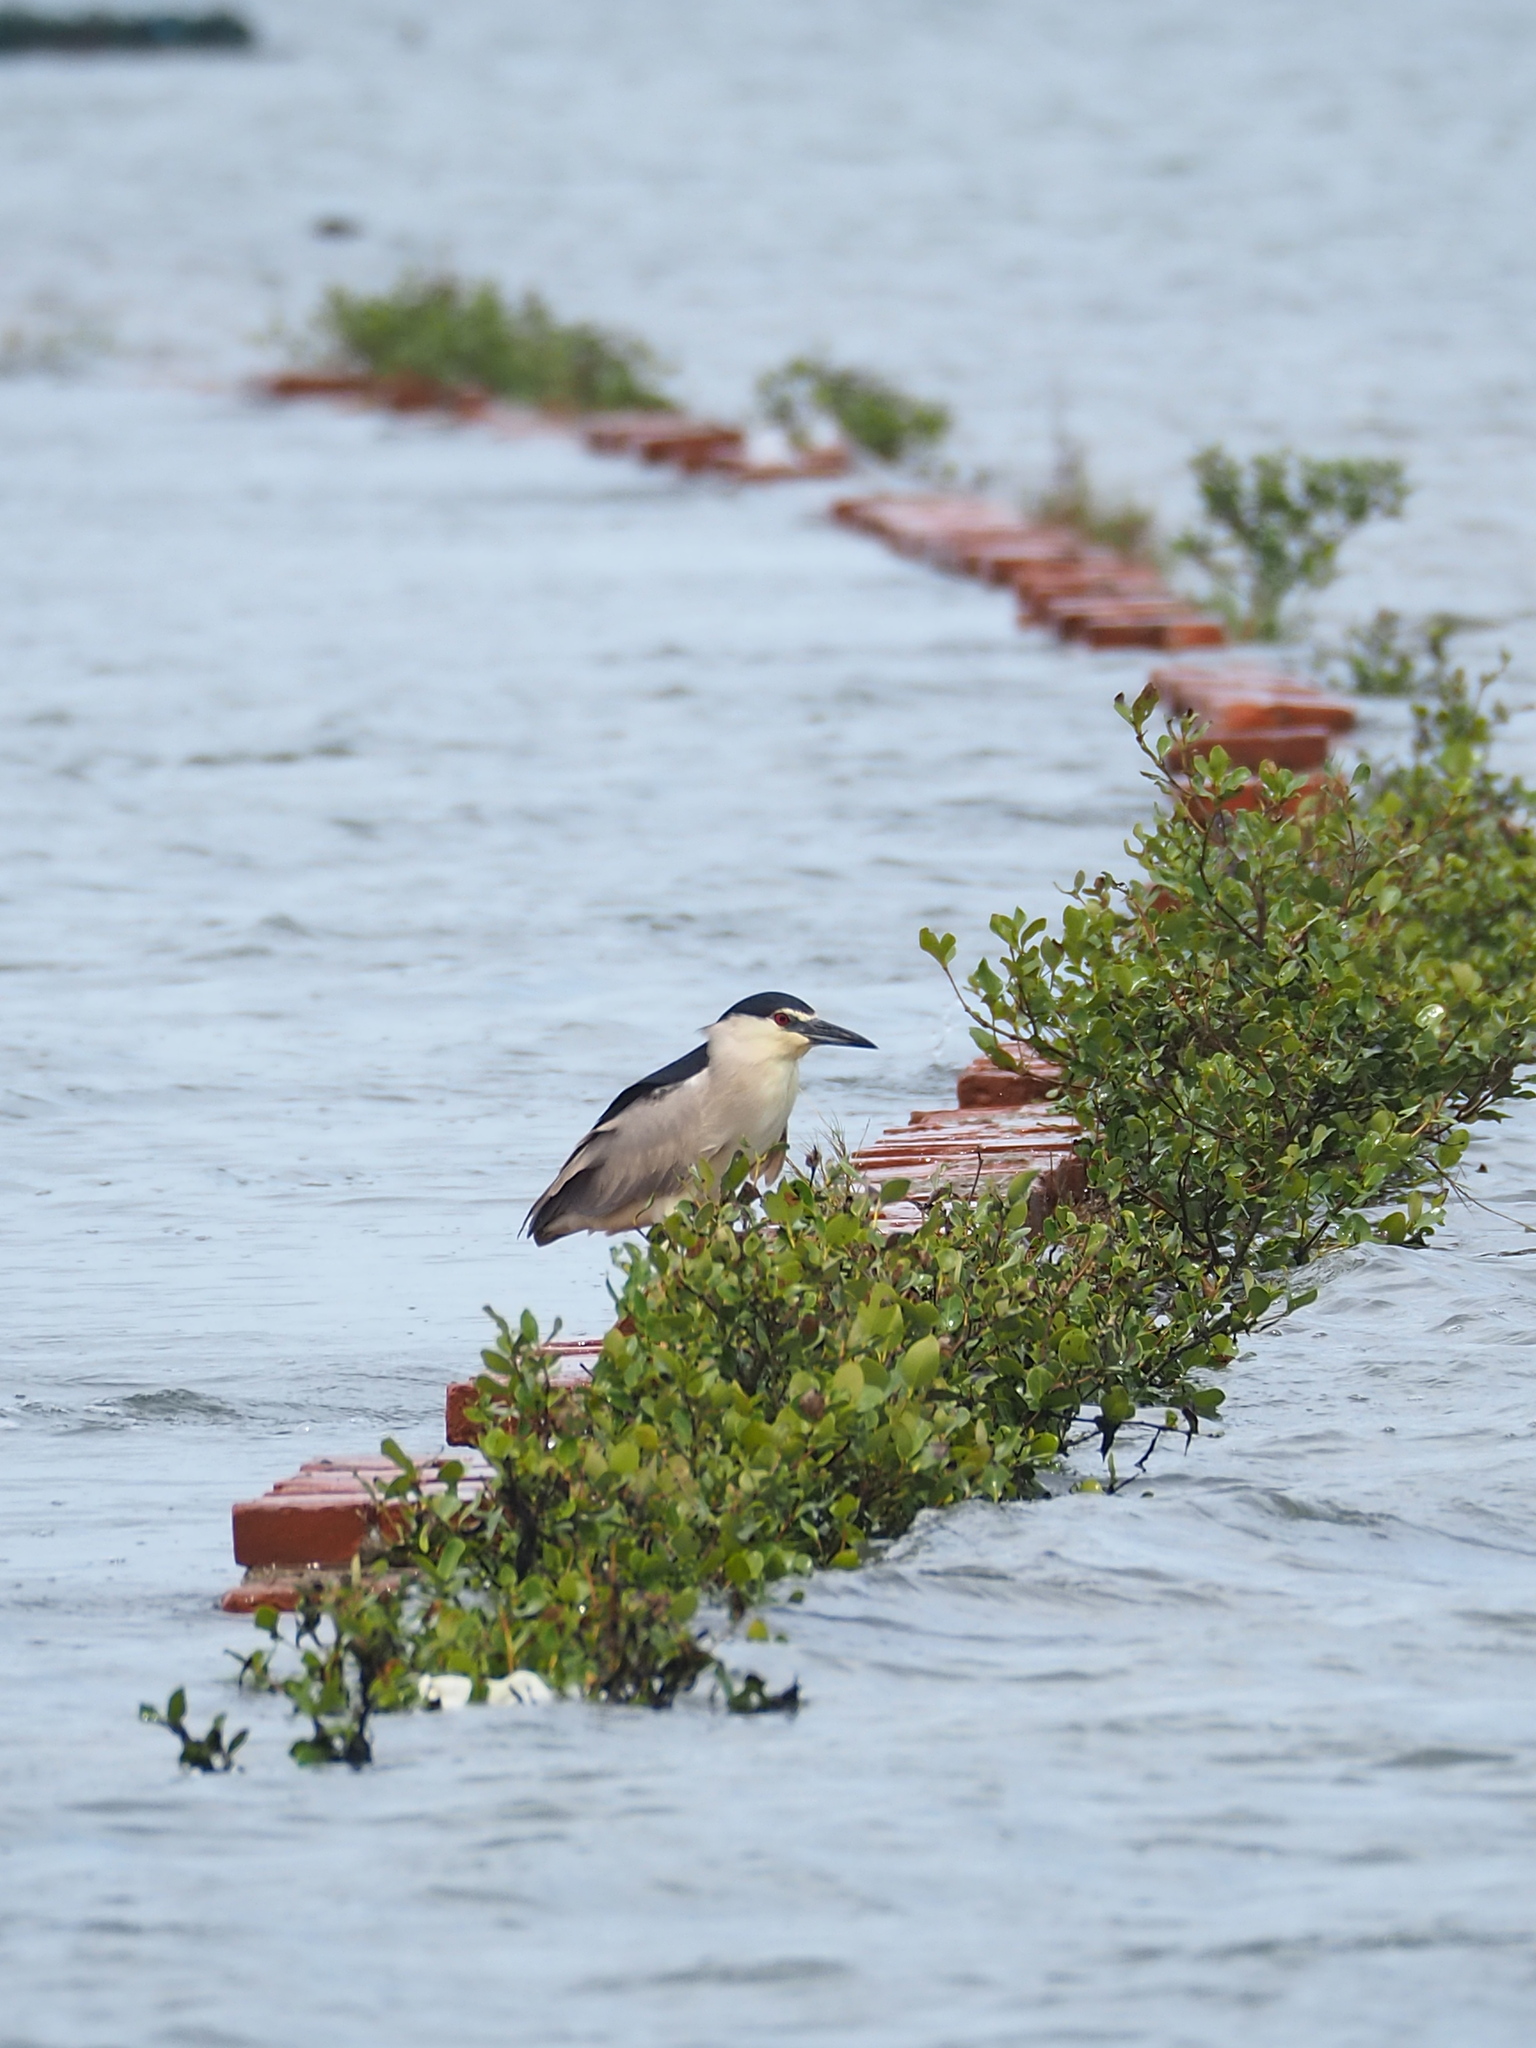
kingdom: Animalia
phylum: Chordata
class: Aves
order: Pelecaniformes
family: Ardeidae
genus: Nycticorax
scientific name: Nycticorax nycticorax
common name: Black-crowned night heron
